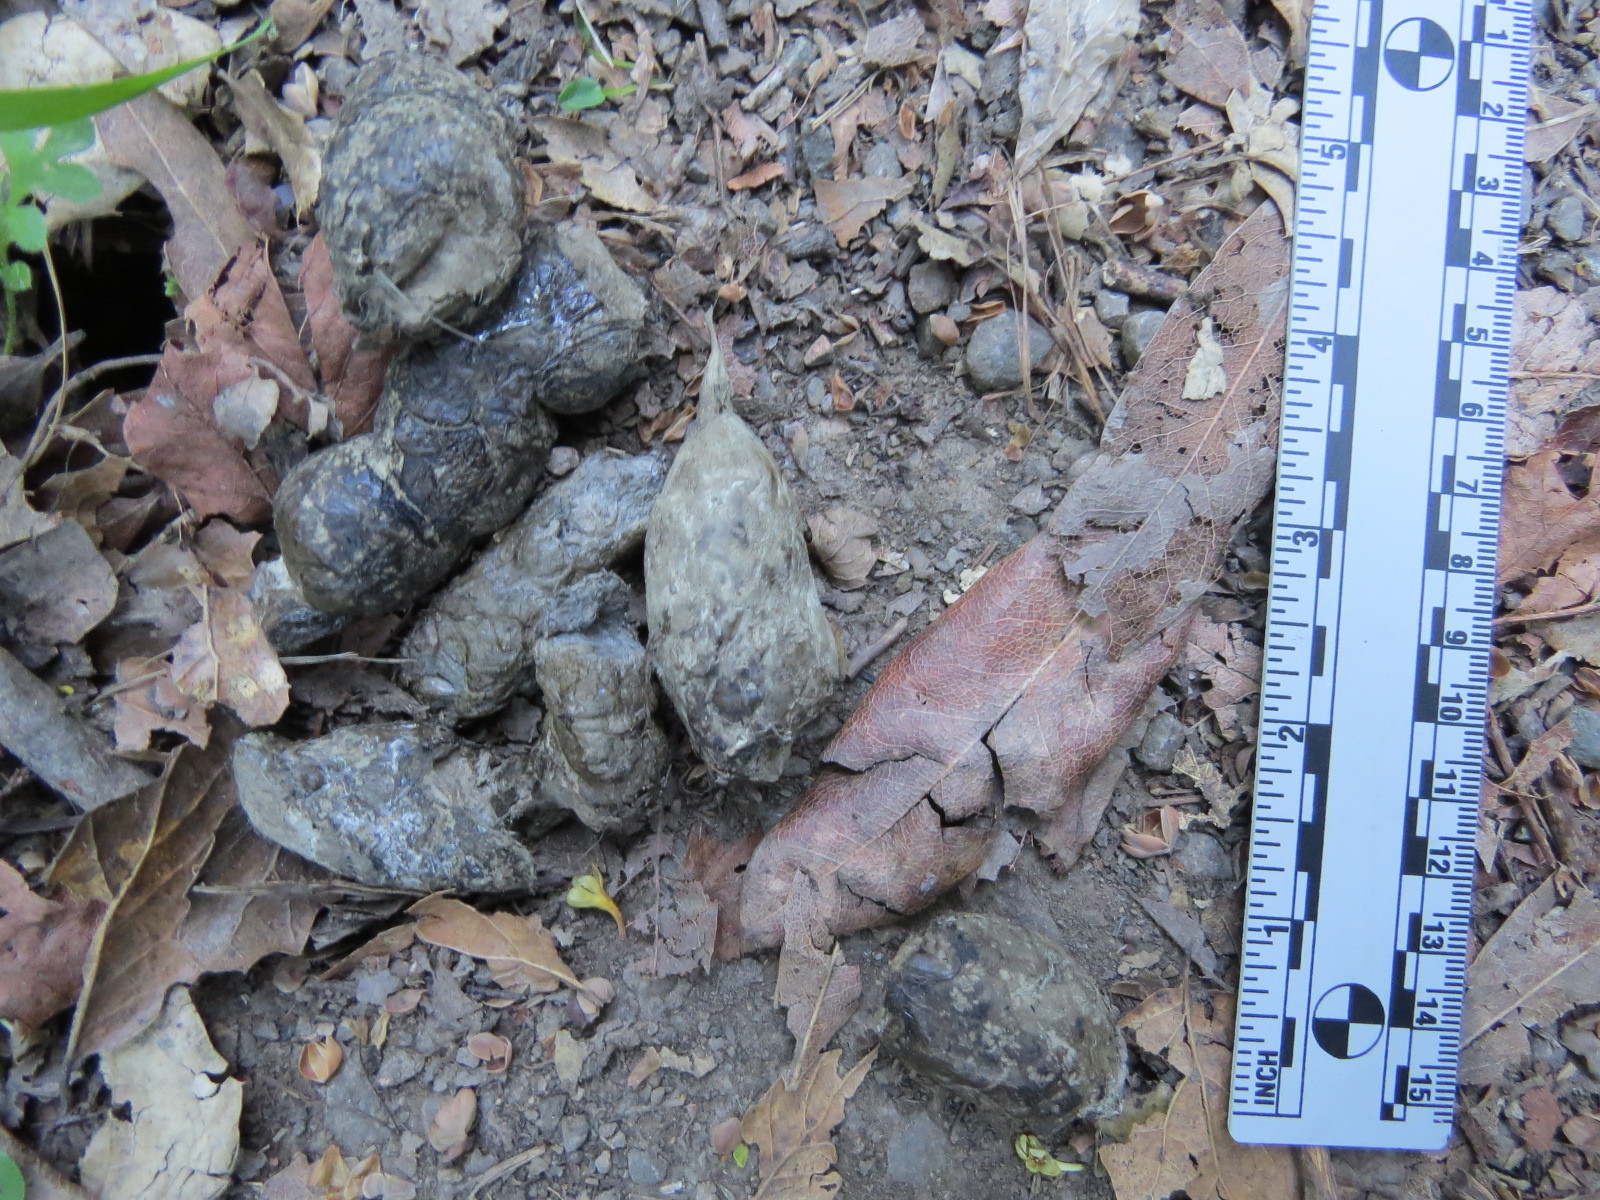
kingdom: Animalia
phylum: Chordata
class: Mammalia
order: Carnivora
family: Felidae
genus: Lynx
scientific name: Lynx rufus
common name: Bobcat
